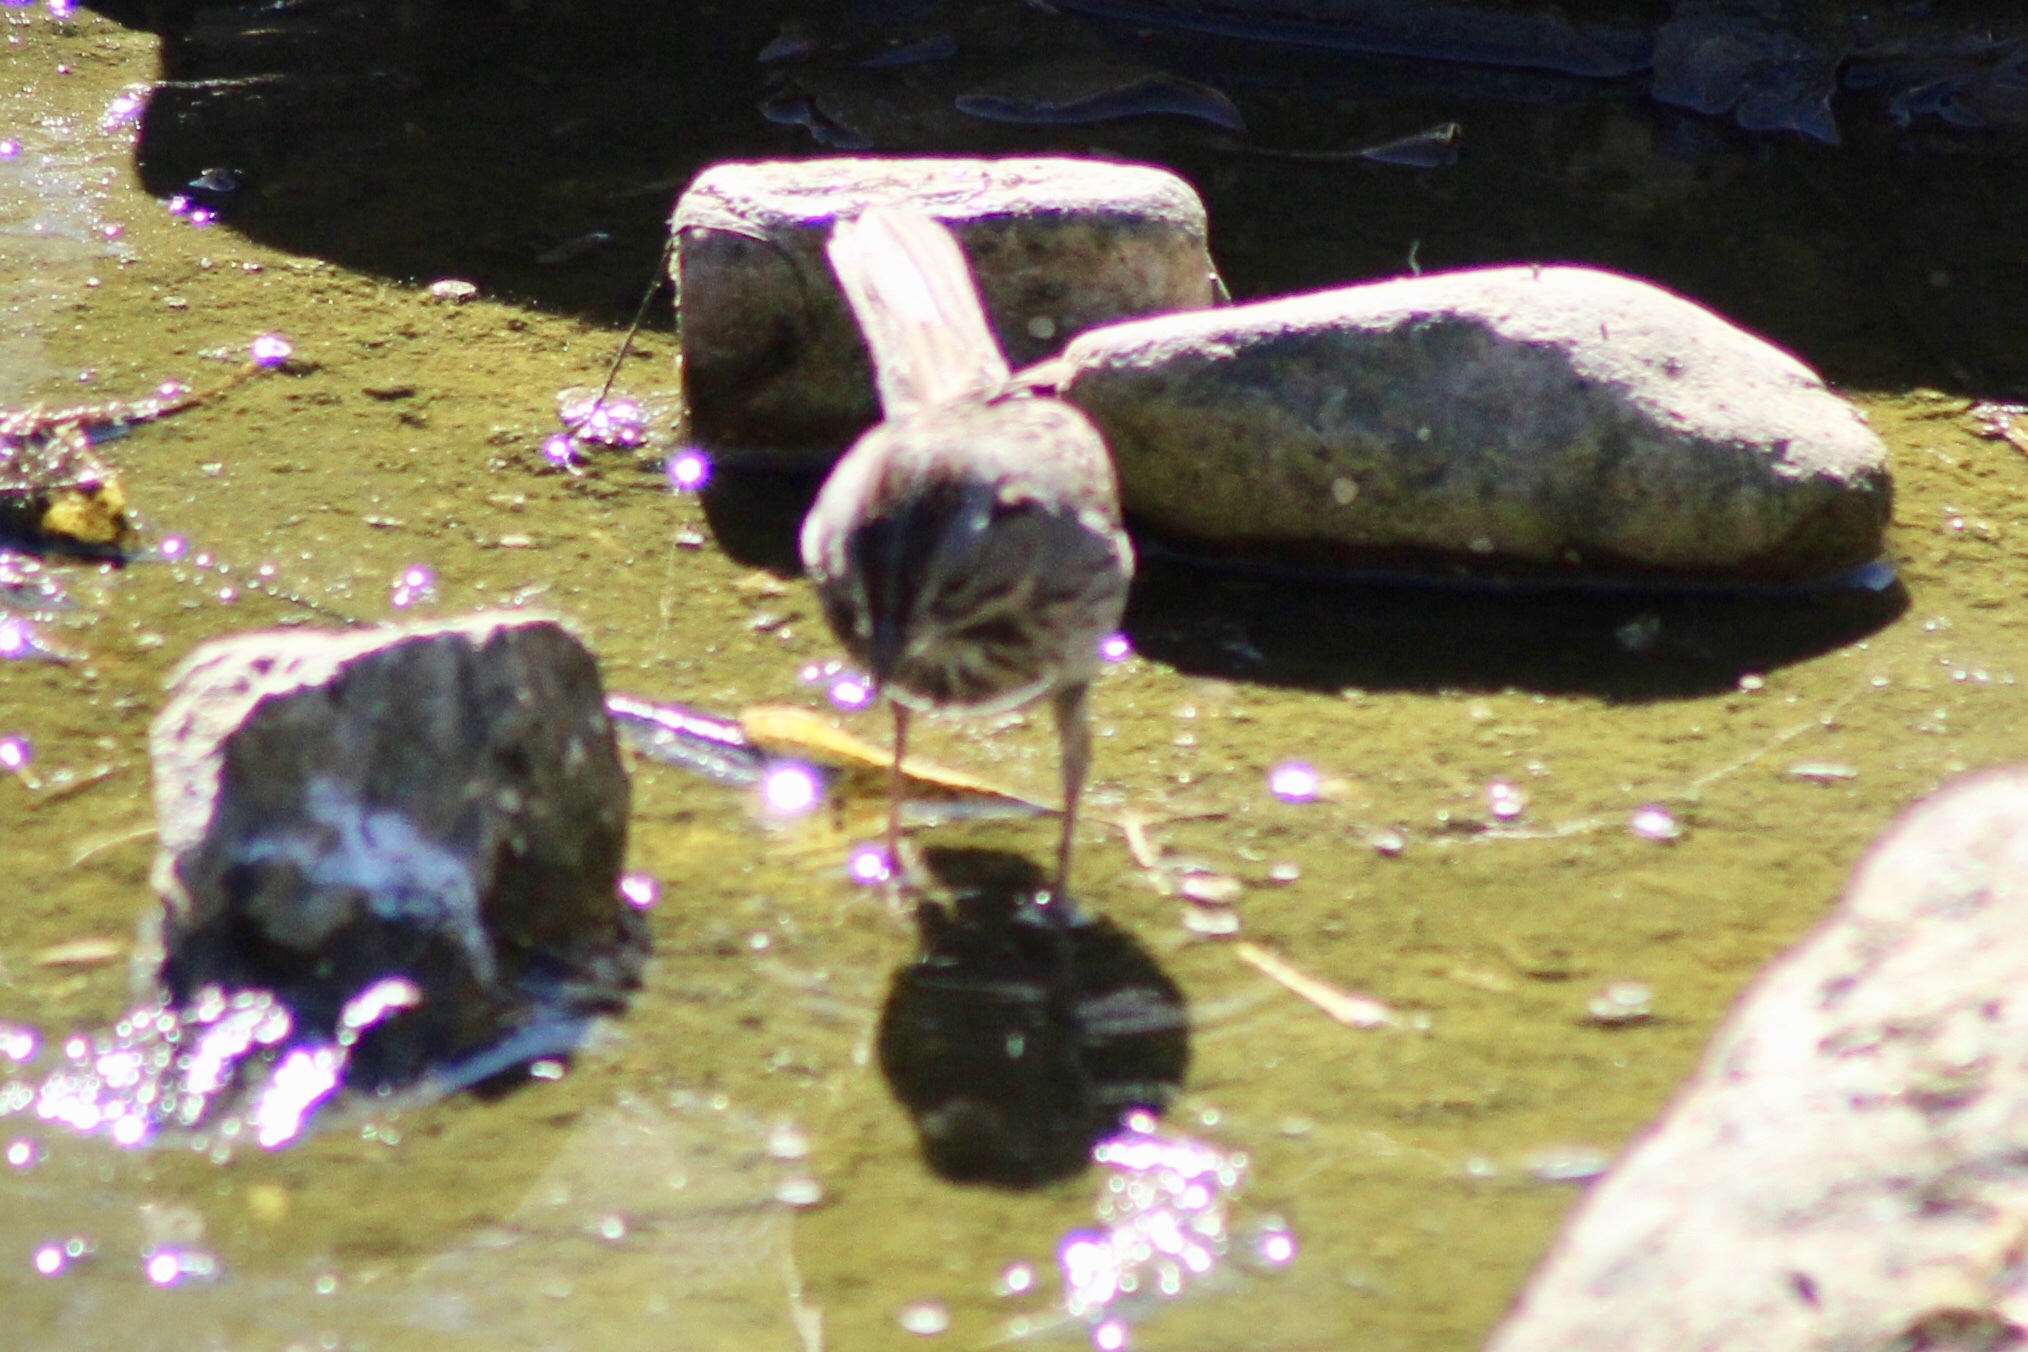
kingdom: Animalia
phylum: Chordata
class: Aves
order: Passeriformes
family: Passerellidae
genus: Melospiza
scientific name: Melospiza lincolnii
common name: Lincoln's sparrow
